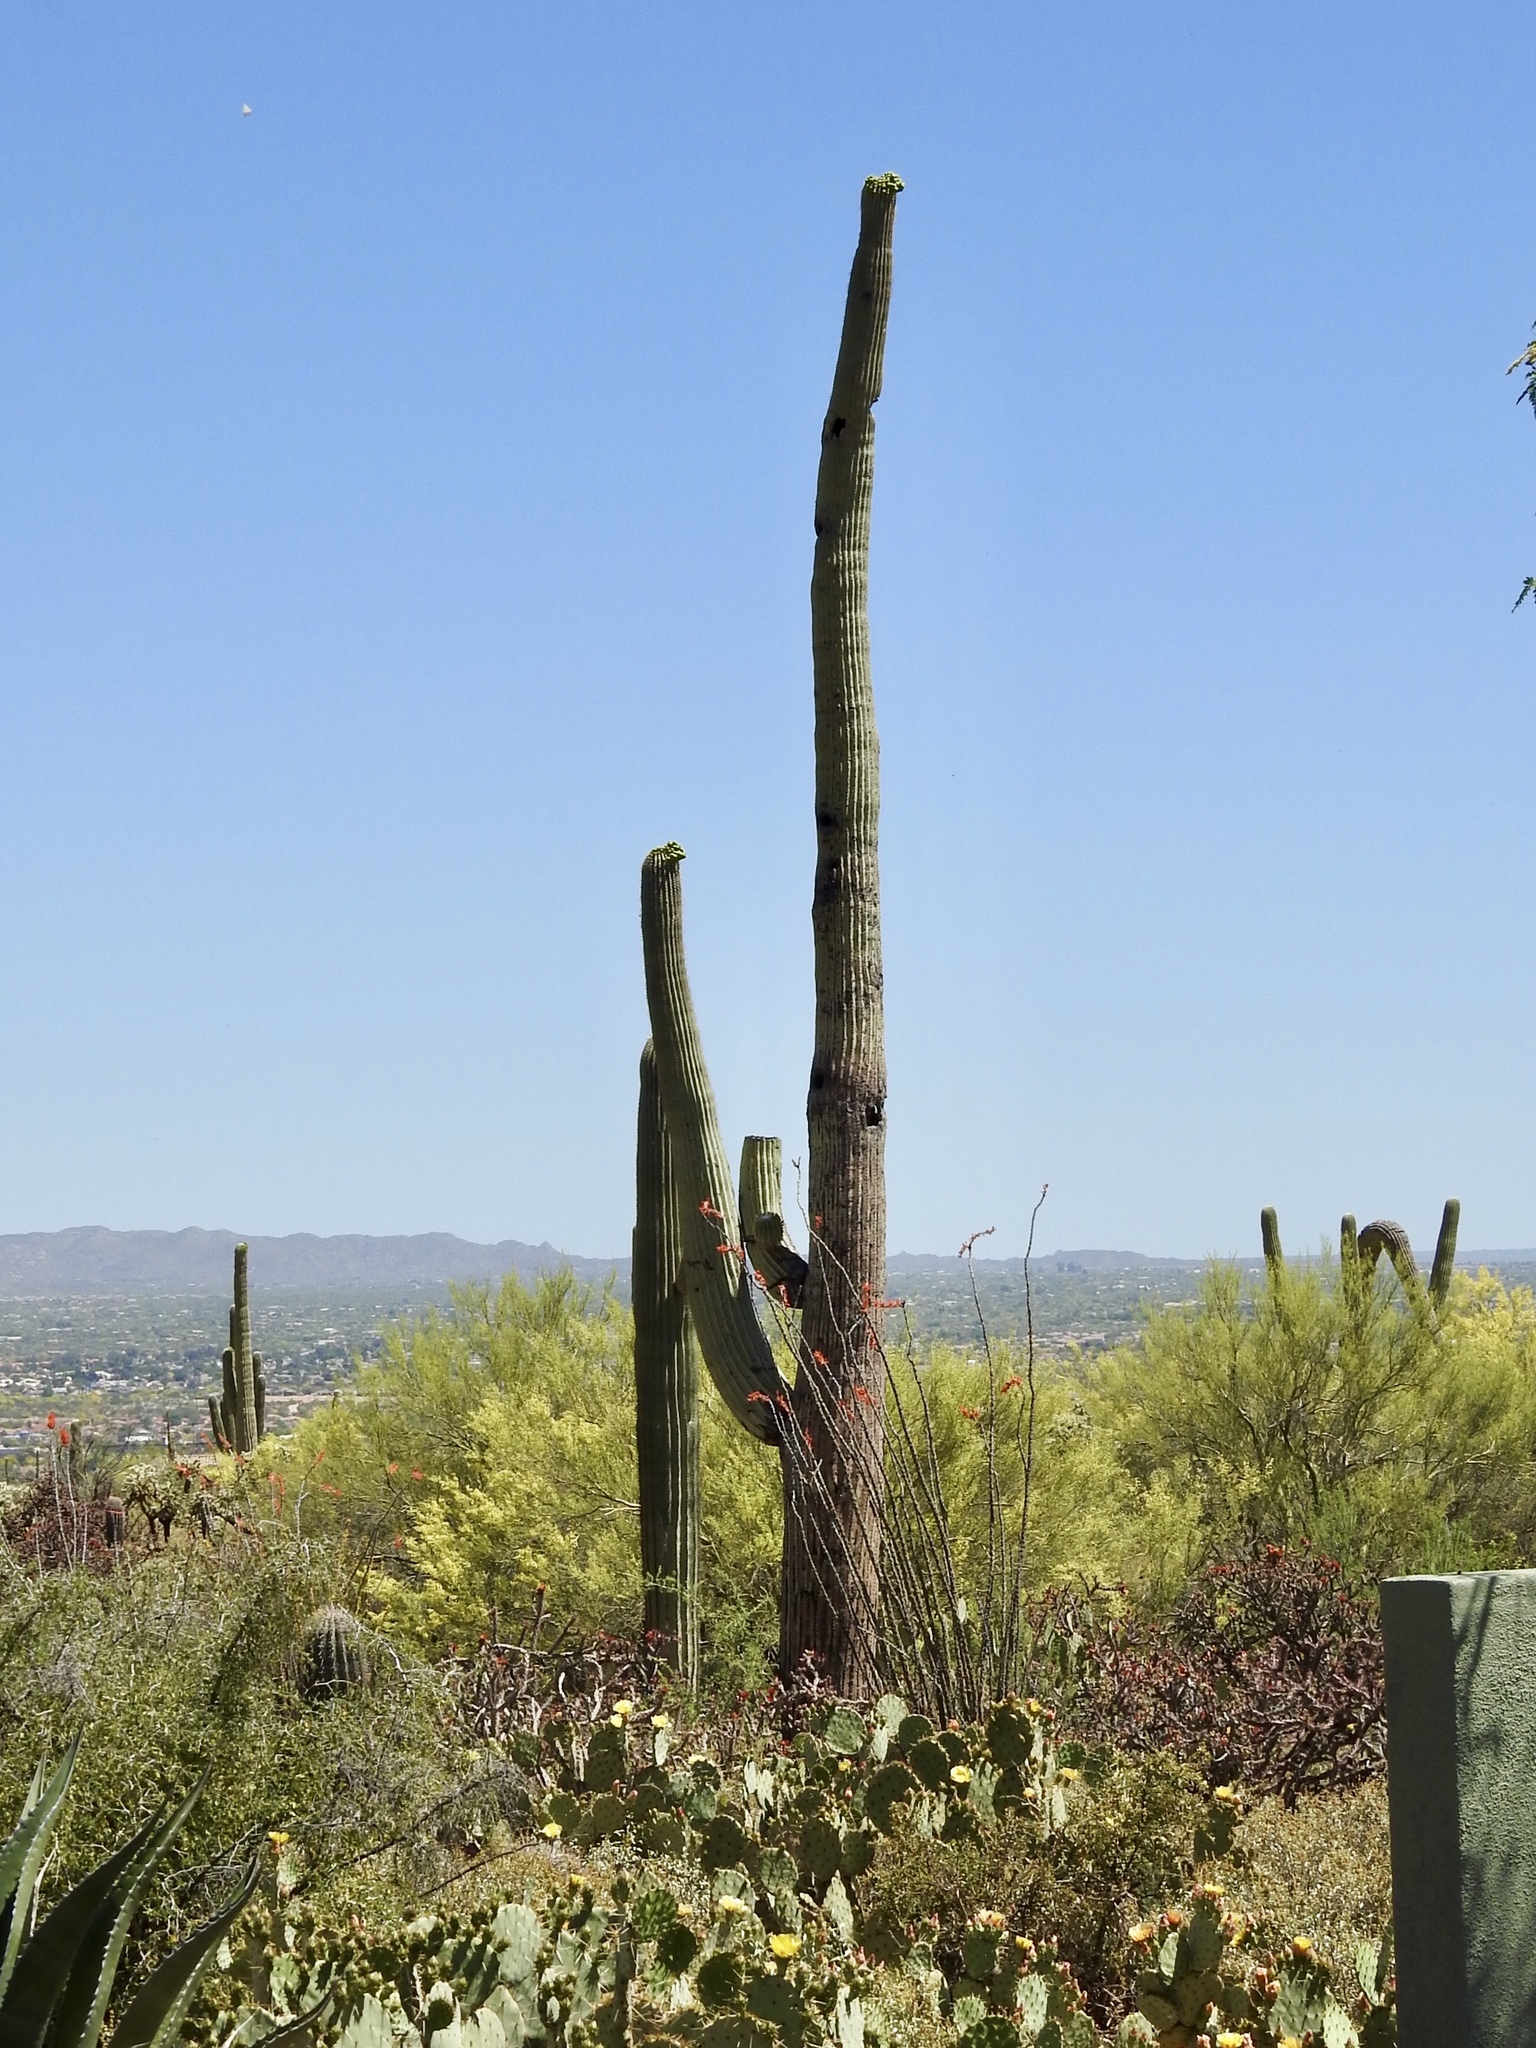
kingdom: Plantae
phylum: Tracheophyta
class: Magnoliopsida
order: Caryophyllales
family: Cactaceae
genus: Carnegiea
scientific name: Carnegiea gigantea
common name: Saguaro
